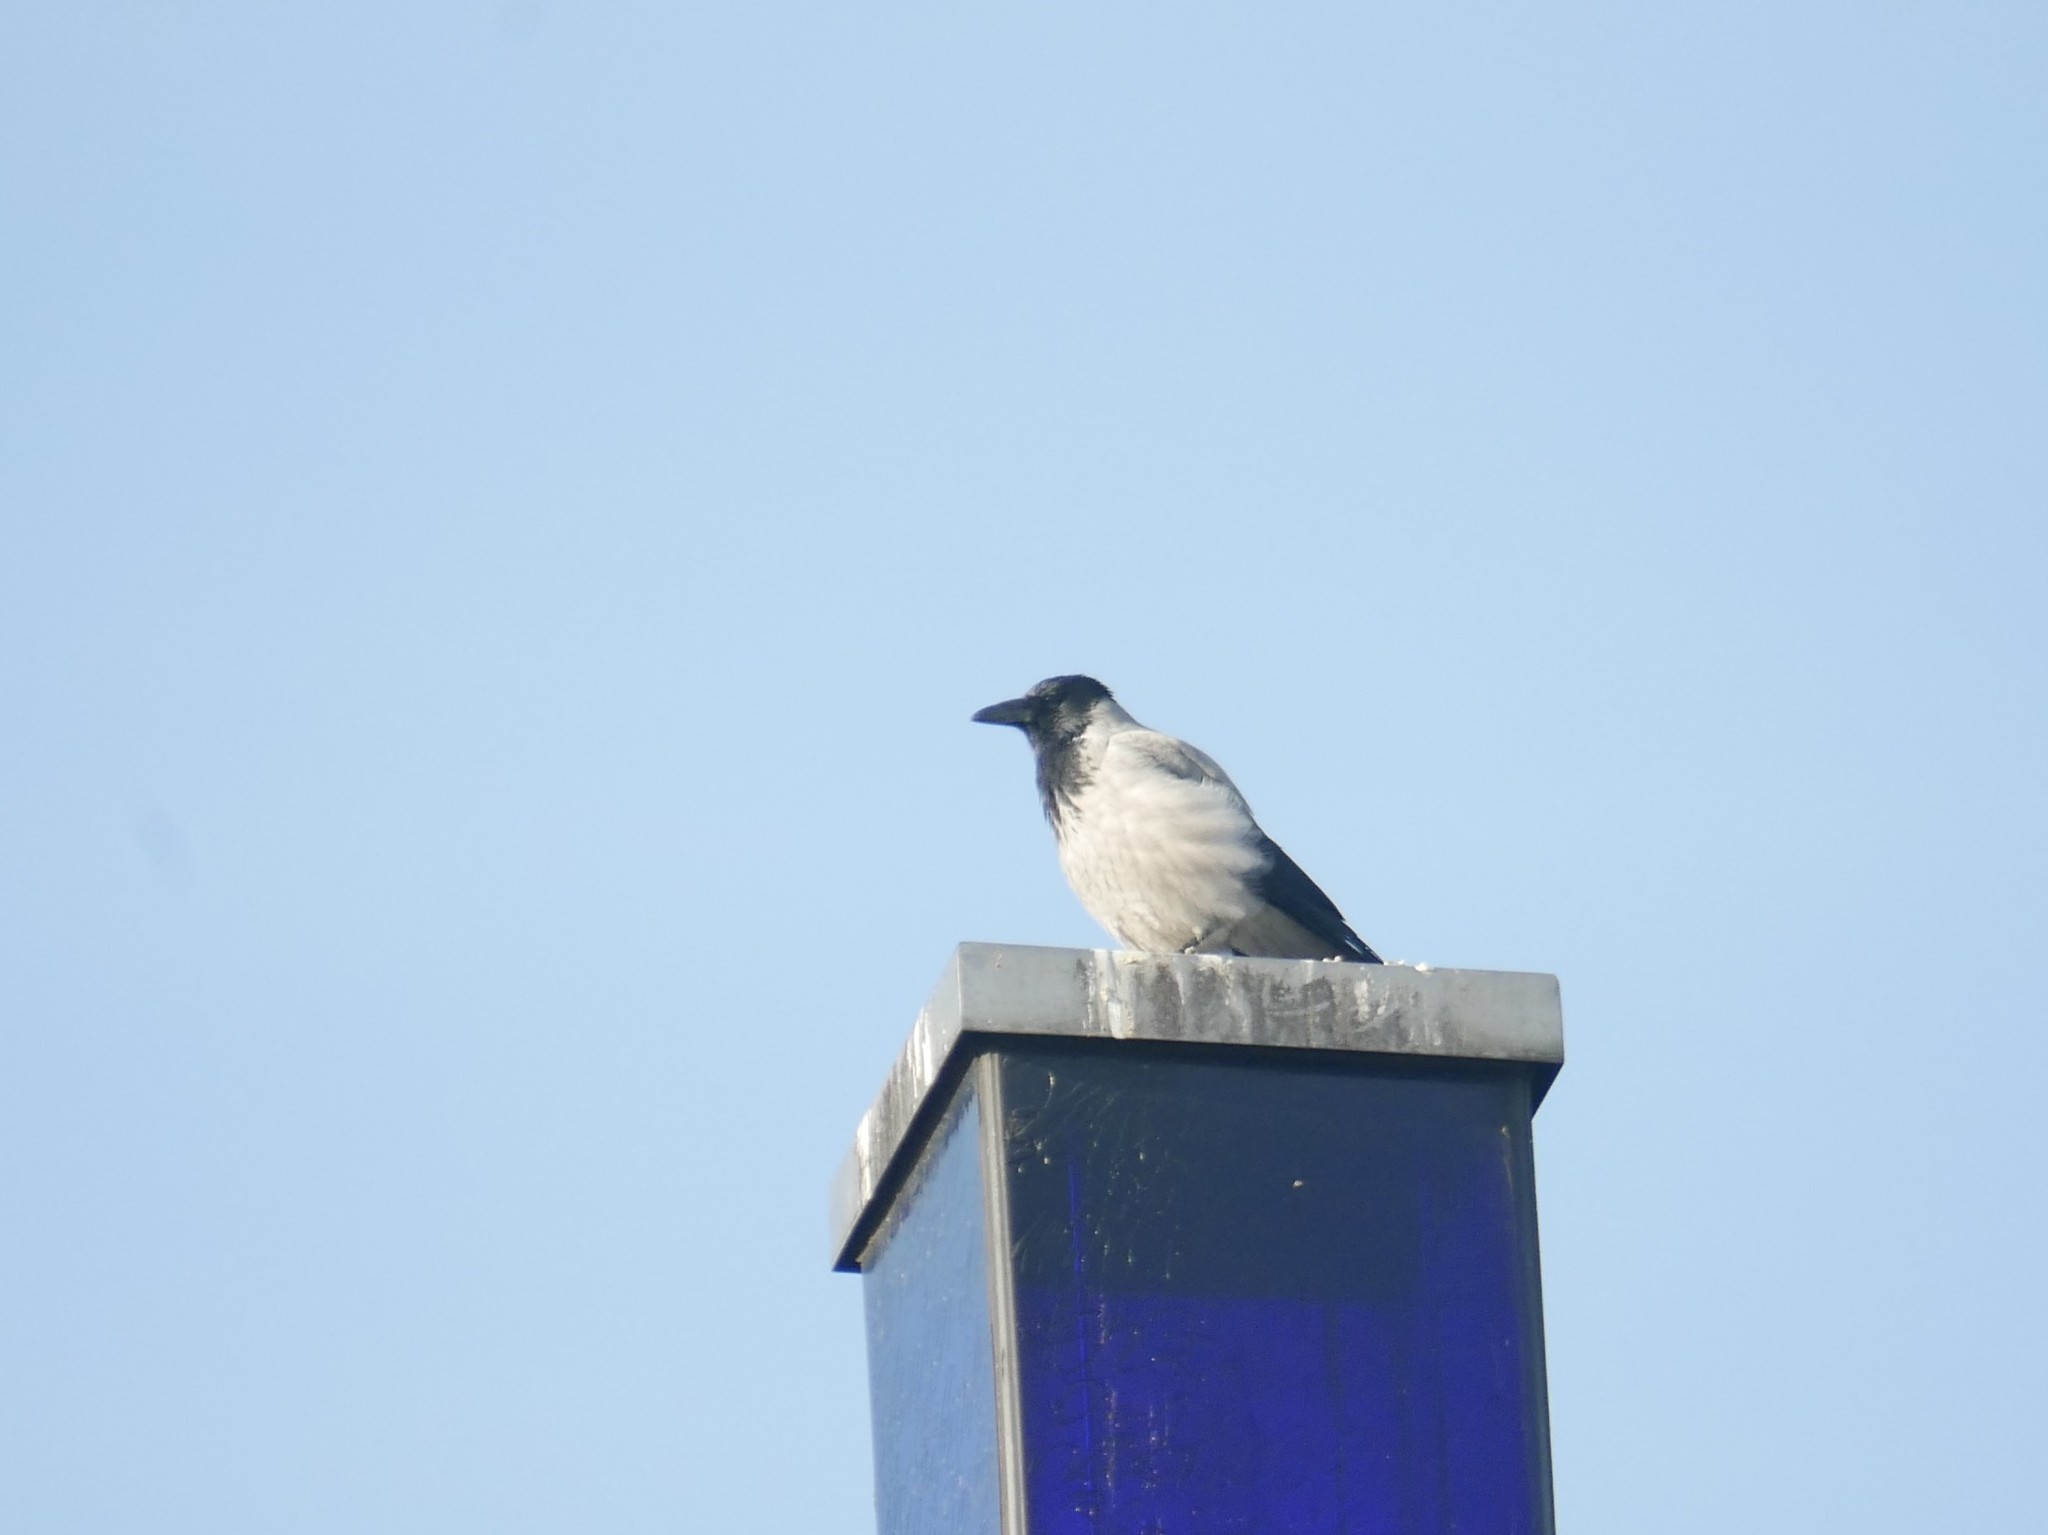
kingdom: Animalia
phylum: Chordata
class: Aves
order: Passeriformes
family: Corvidae
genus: Corvus
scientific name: Corvus cornix
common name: Hooded crow
